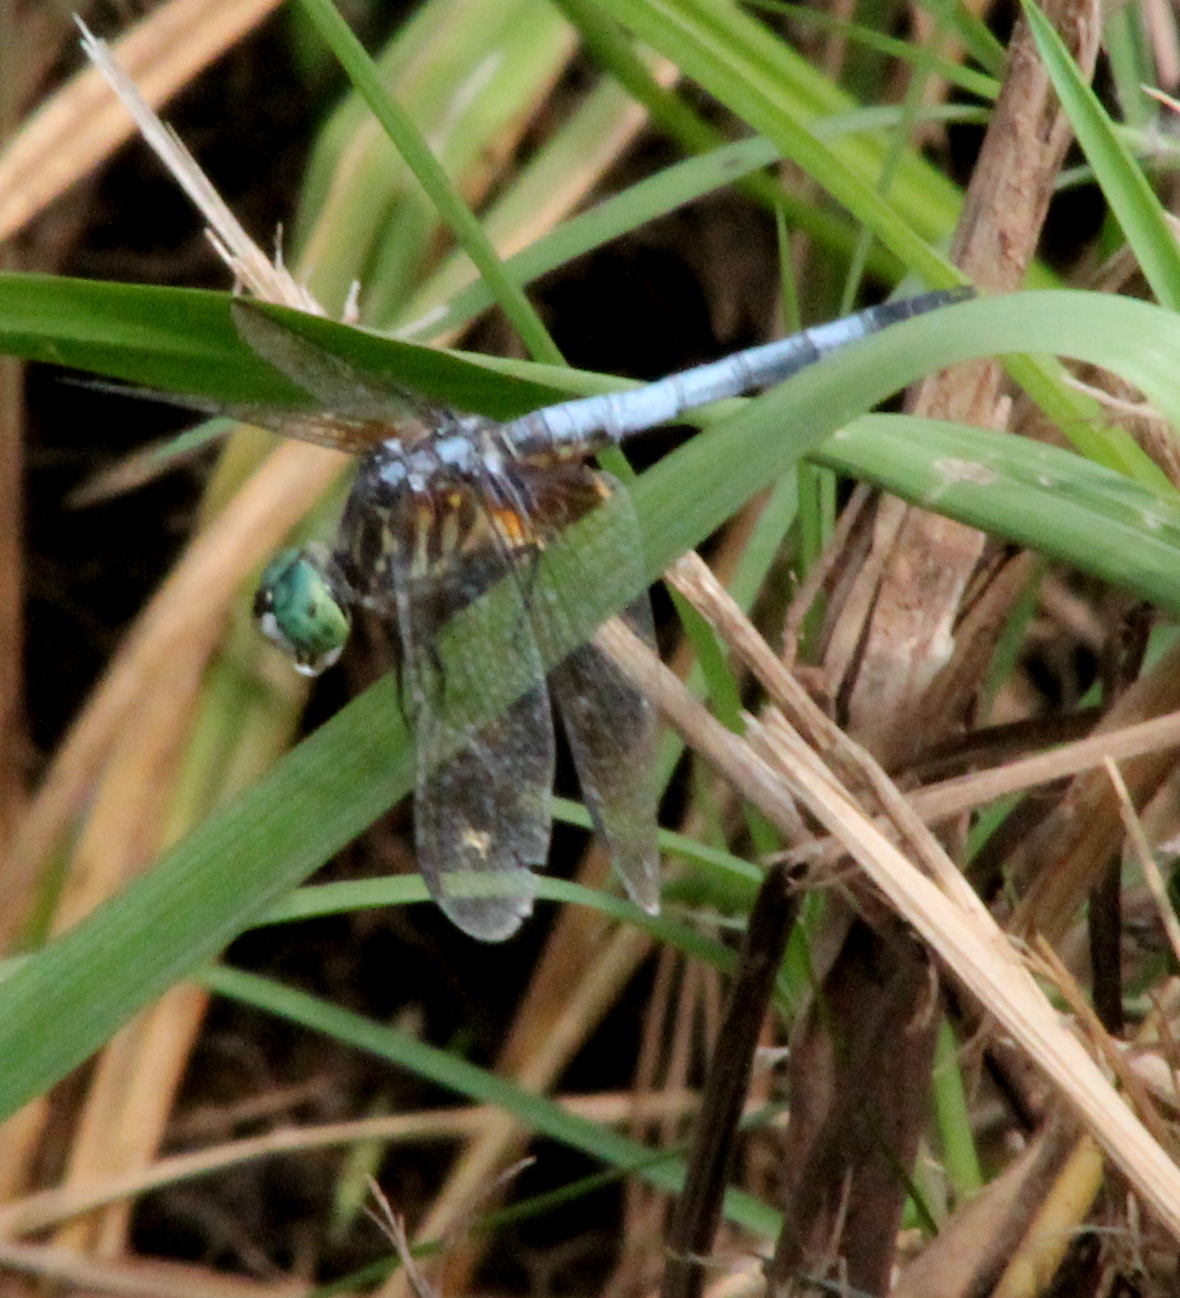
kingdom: Animalia
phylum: Arthropoda
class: Insecta
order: Odonata
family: Libellulidae
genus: Pachydiplax
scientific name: Pachydiplax longipennis
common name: Blue dasher
